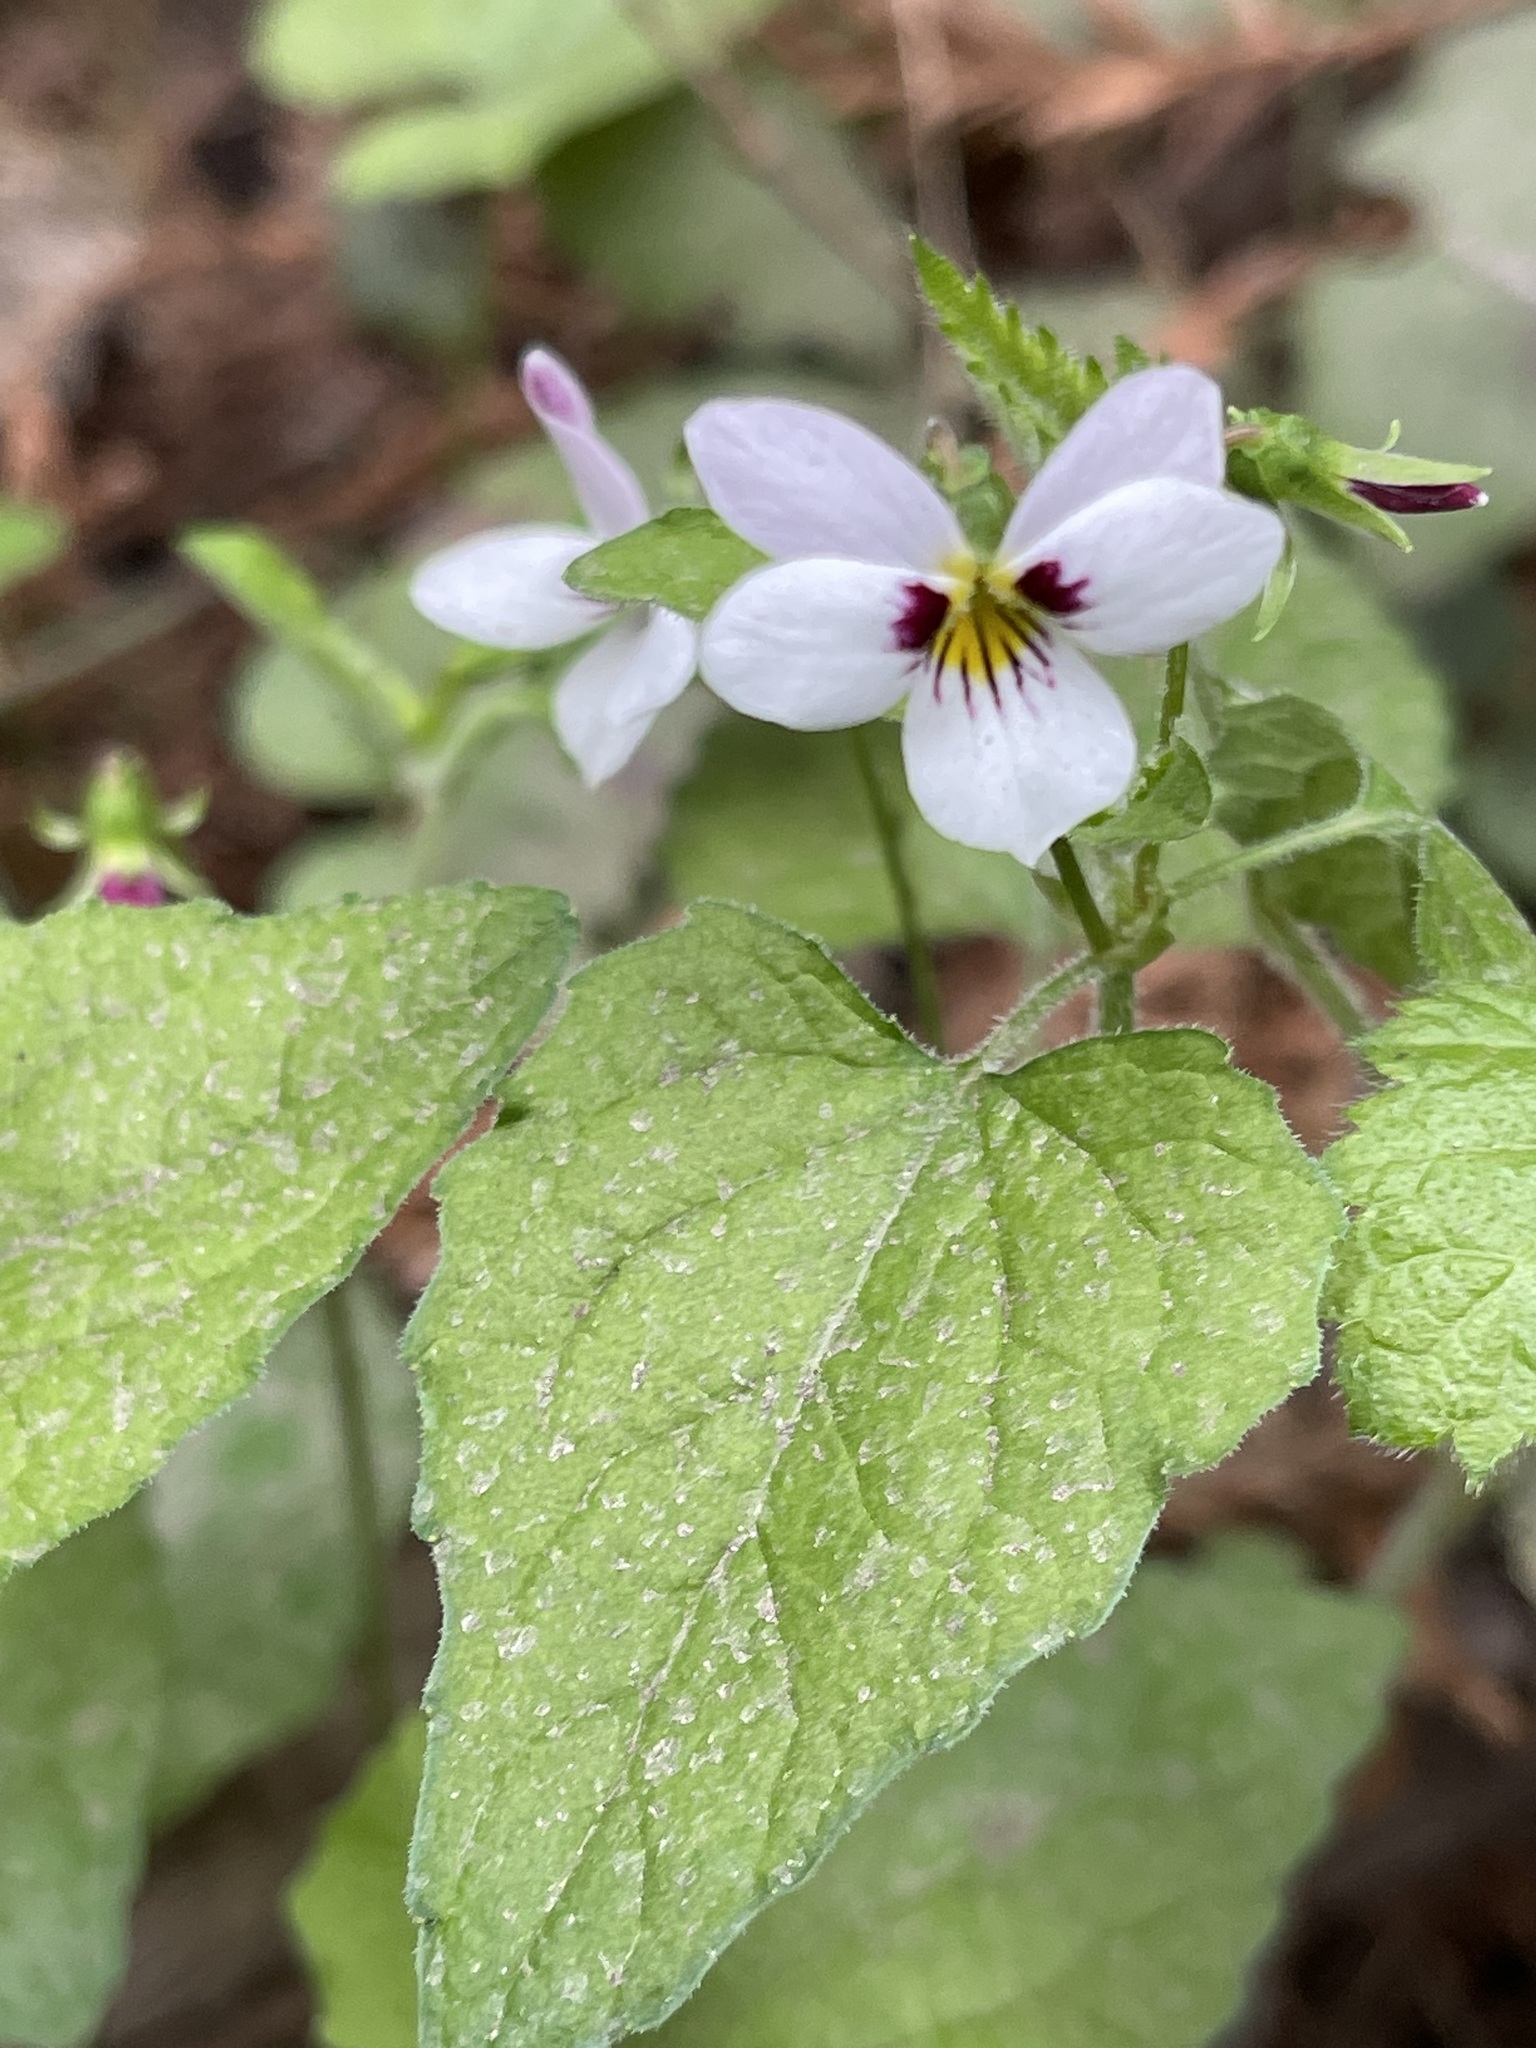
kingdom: Plantae
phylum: Tracheophyta
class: Magnoliopsida
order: Malpighiales
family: Violaceae
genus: Viola
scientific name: Viola ocellata
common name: Western heart's ease
